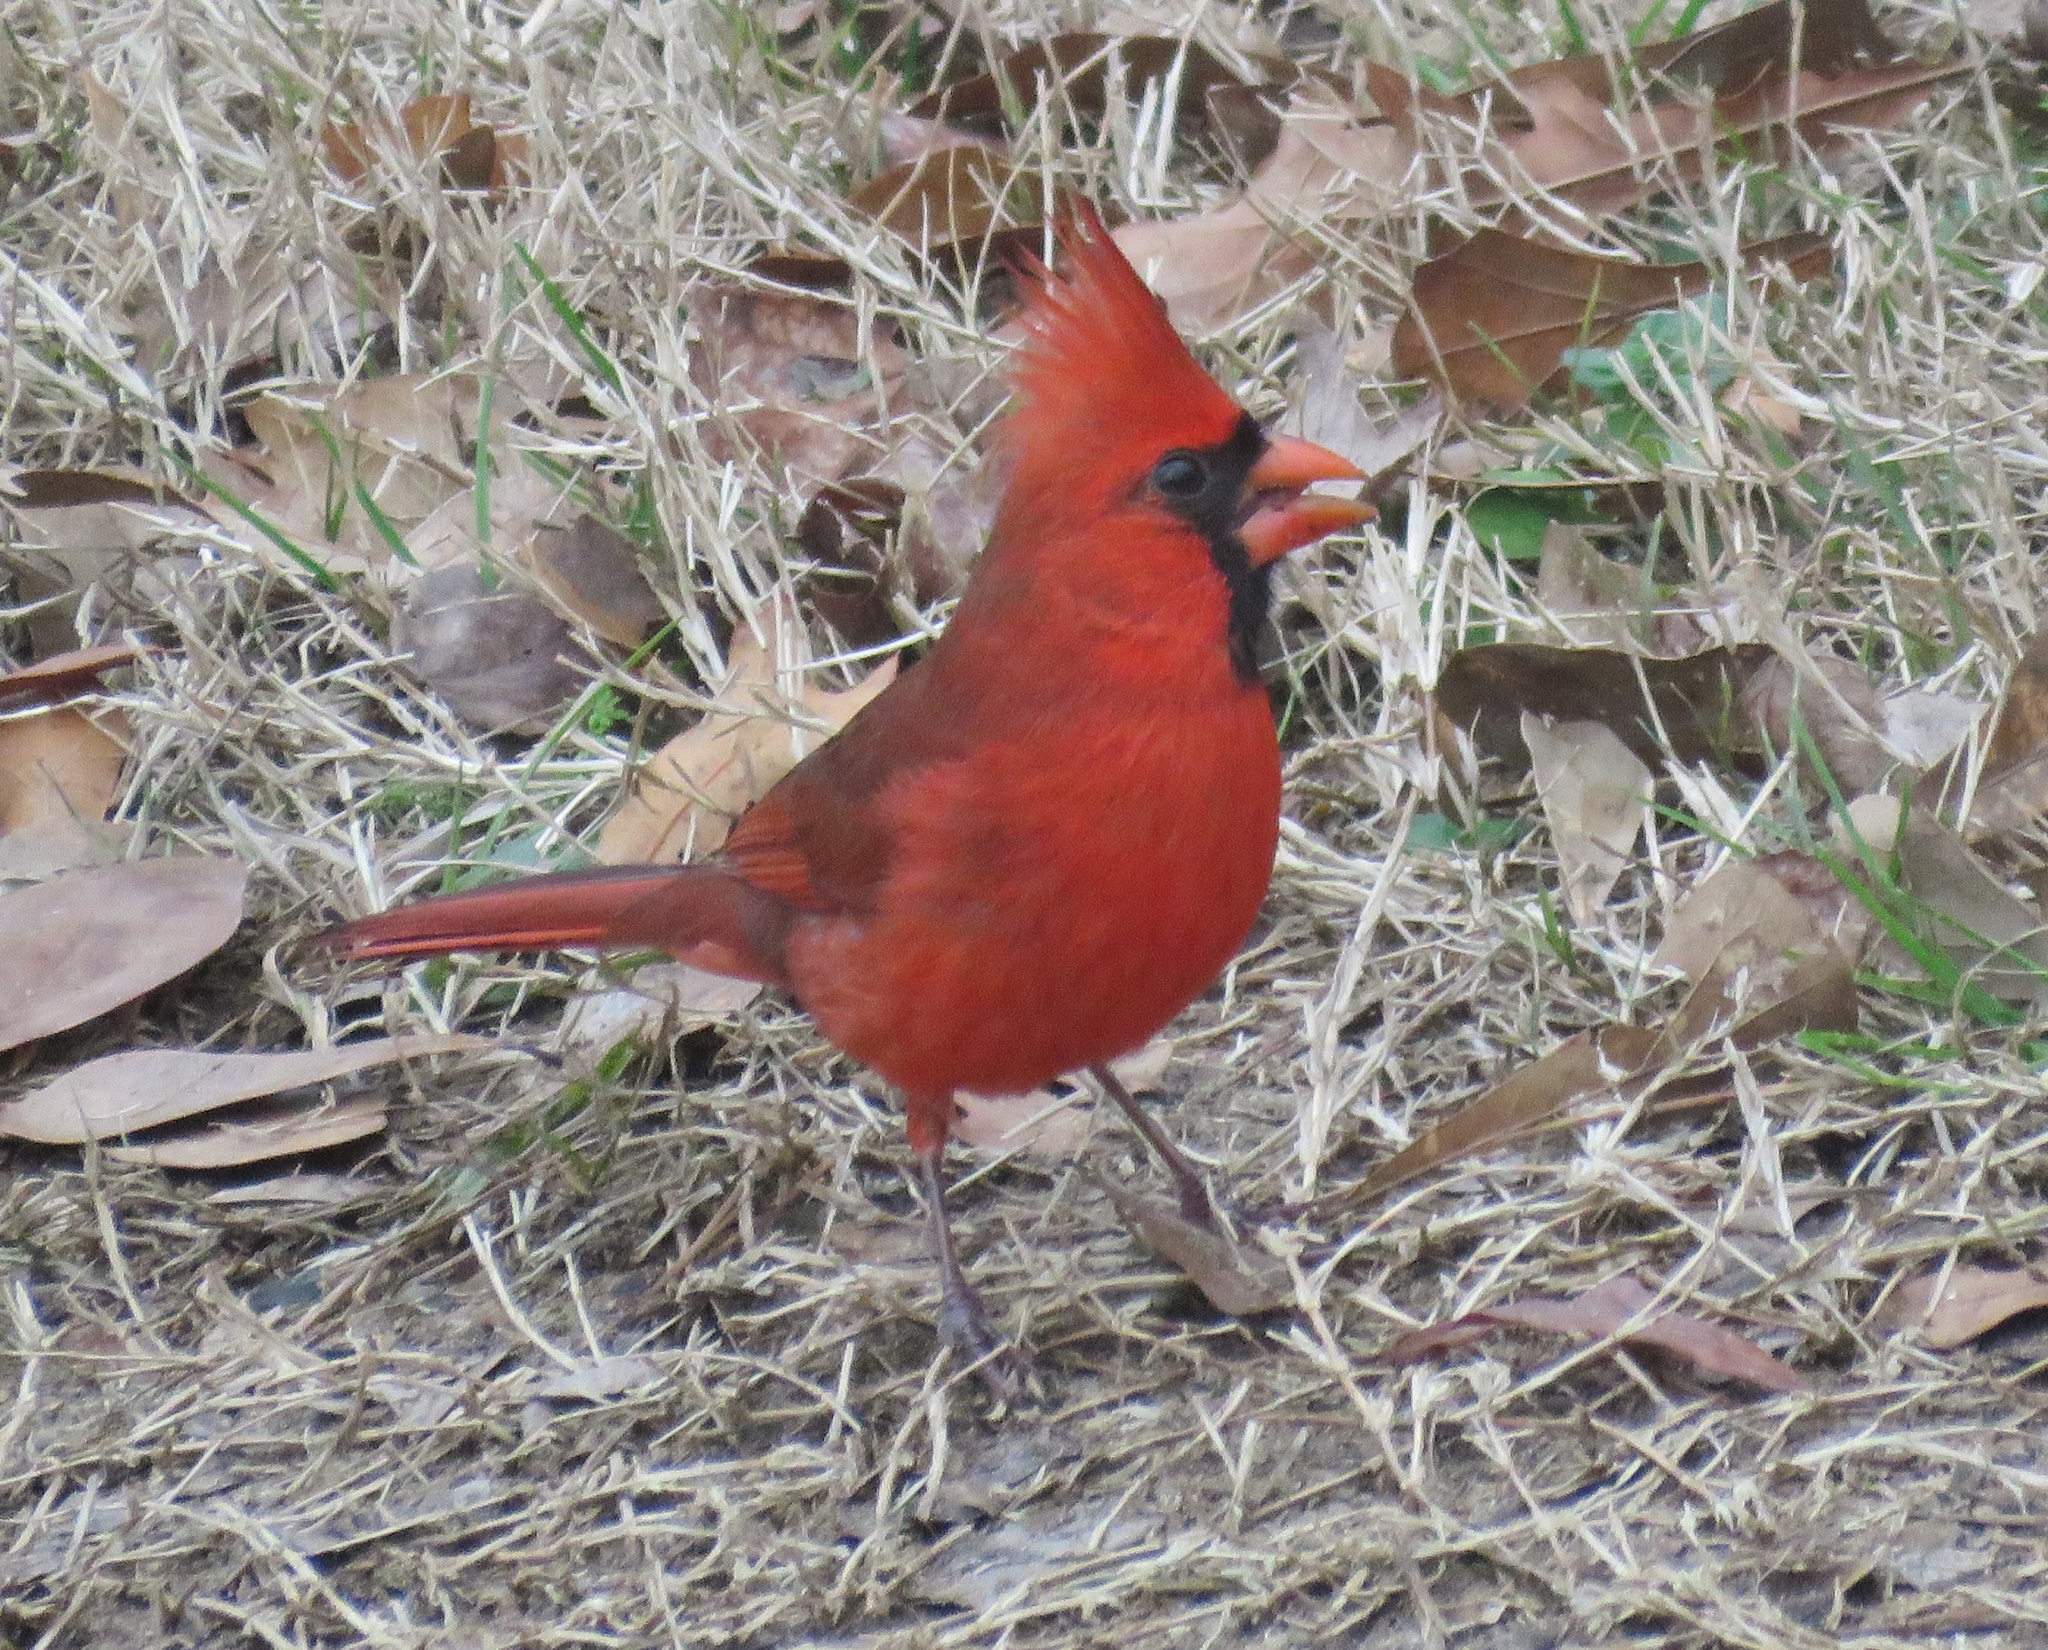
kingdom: Animalia
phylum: Chordata
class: Aves
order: Passeriformes
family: Cardinalidae
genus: Cardinalis
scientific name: Cardinalis cardinalis
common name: Northern cardinal
